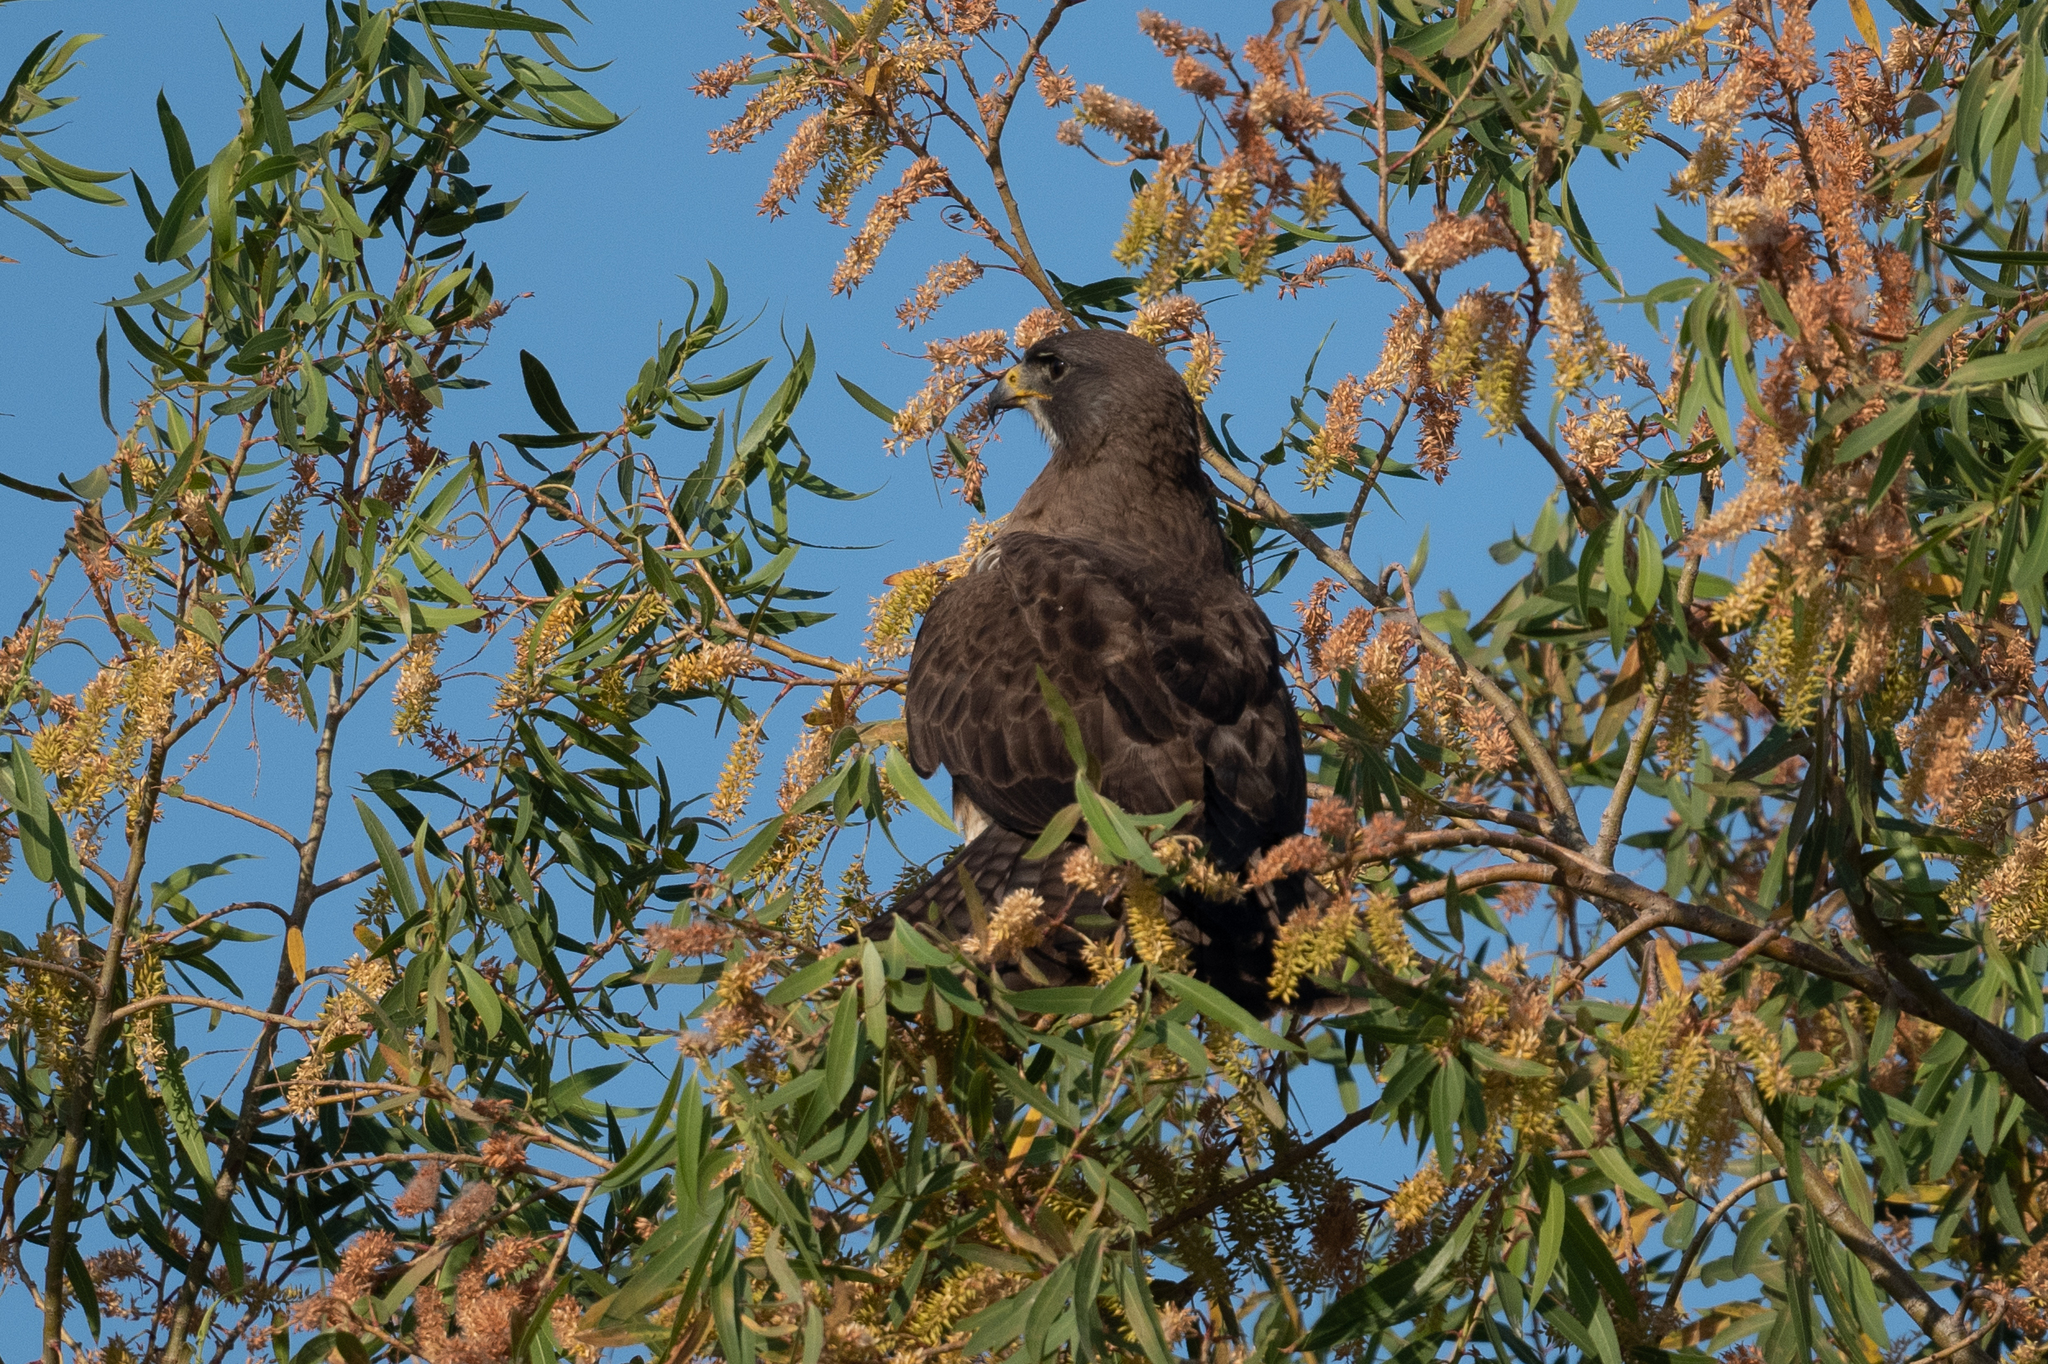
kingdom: Animalia
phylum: Chordata
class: Aves
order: Accipitriformes
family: Accipitridae
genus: Buteo
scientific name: Buteo swainsoni
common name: Swainson's hawk
